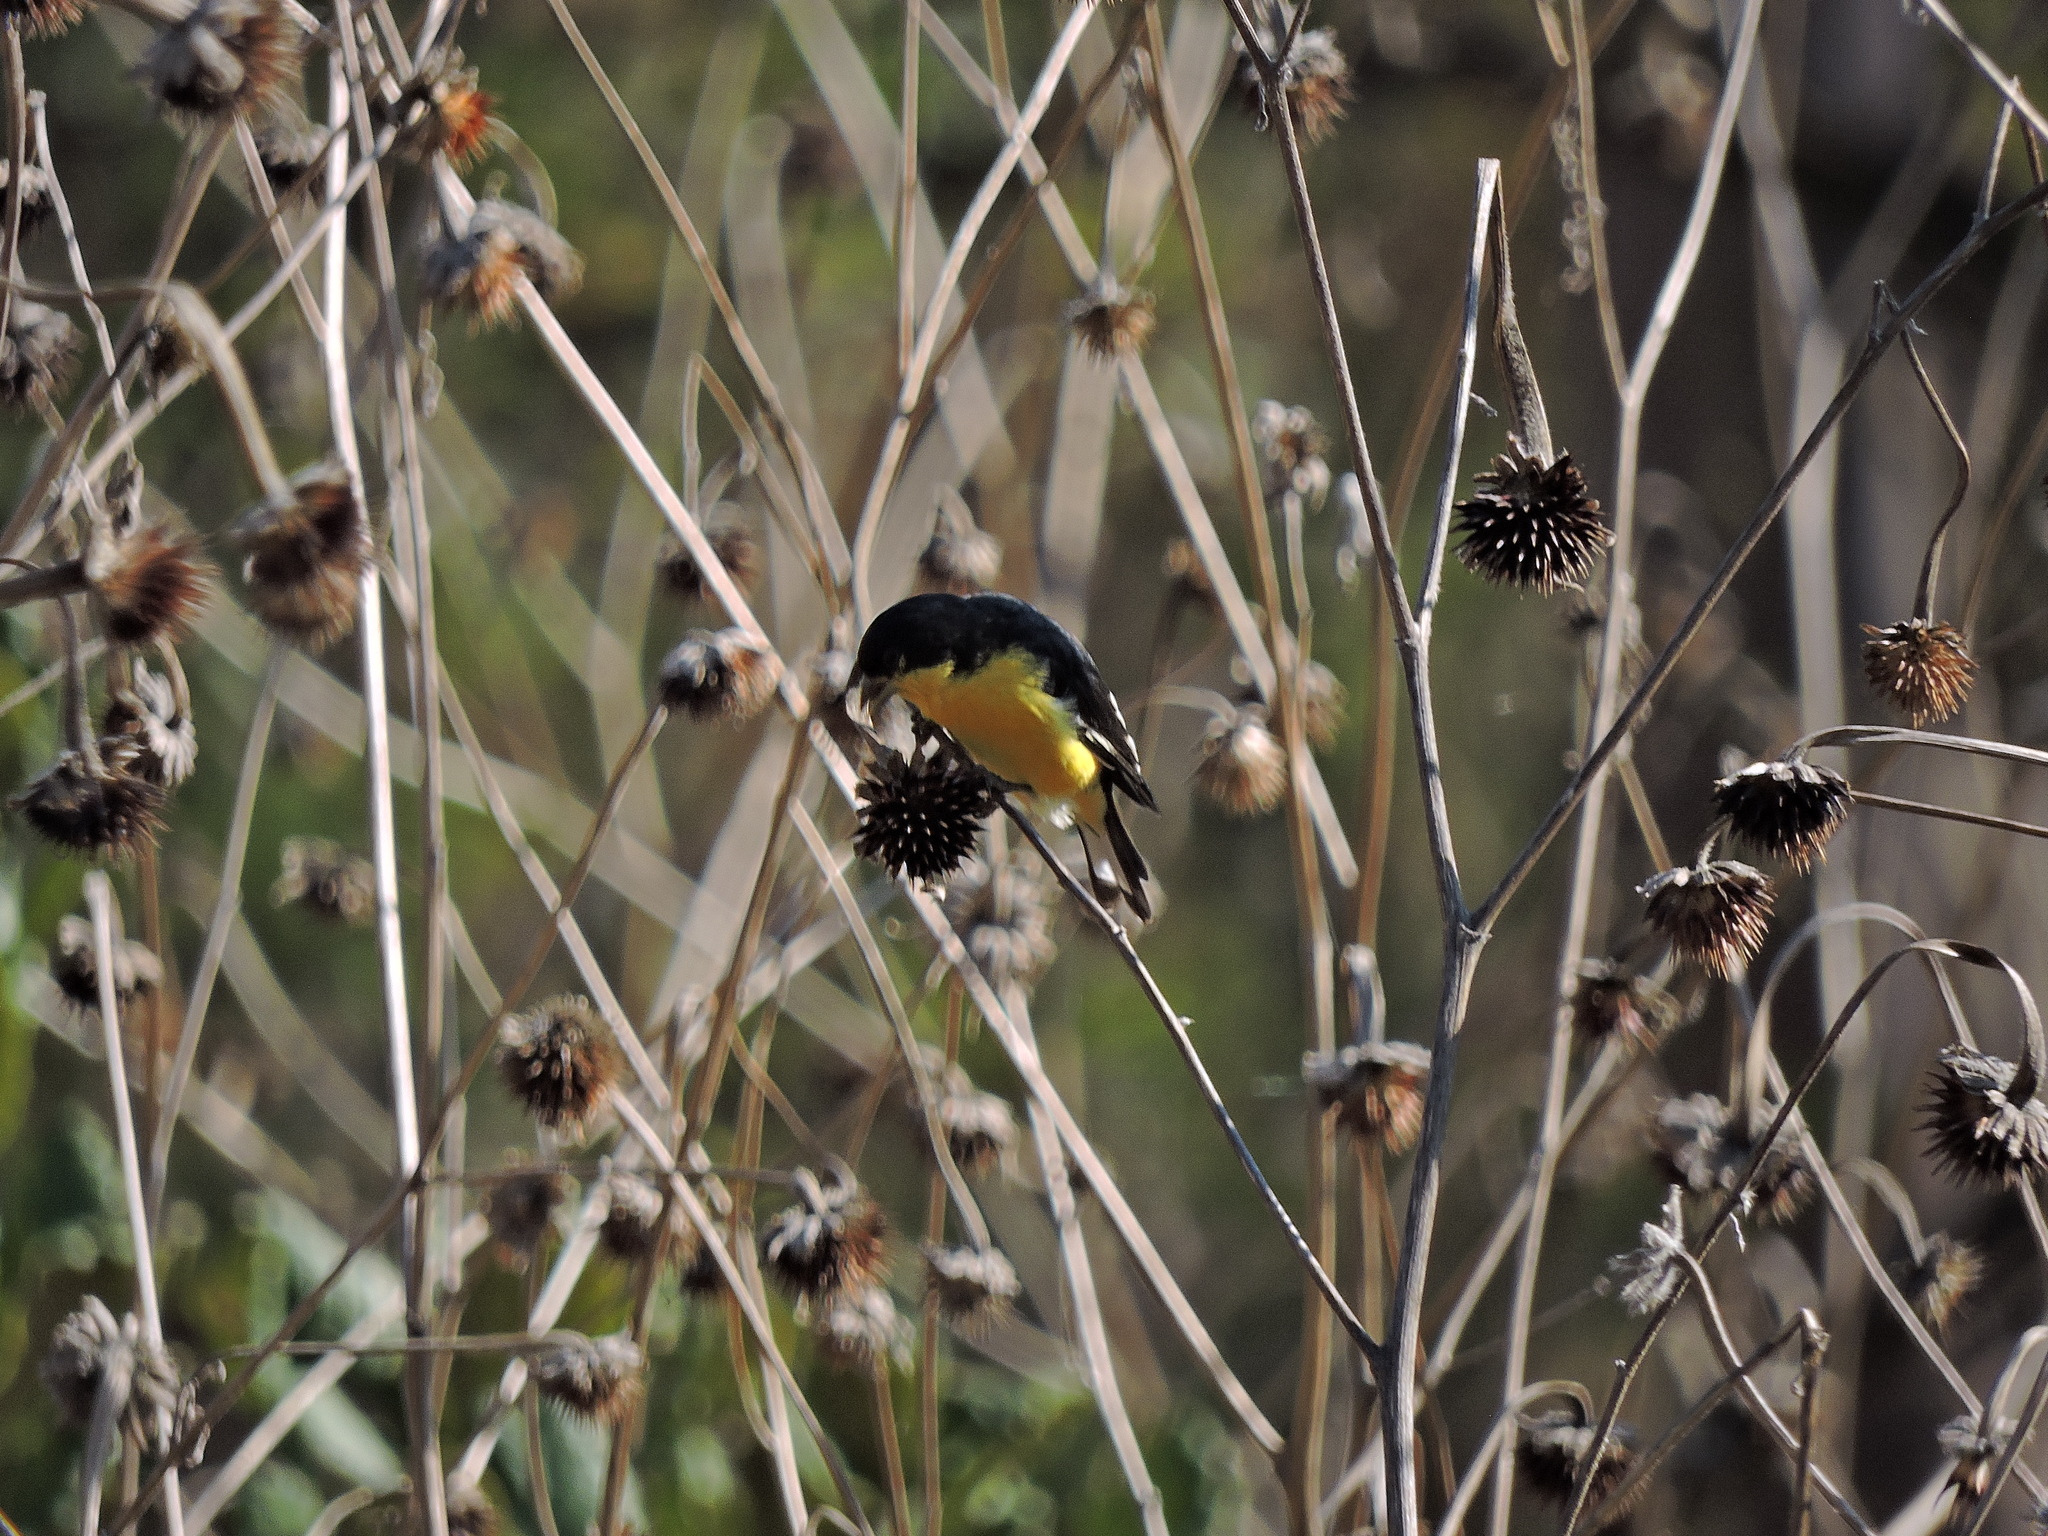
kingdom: Animalia
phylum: Chordata
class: Aves
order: Passeriformes
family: Fringillidae
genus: Spinus
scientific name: Spinus psaltria
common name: Lesser goldfinch
